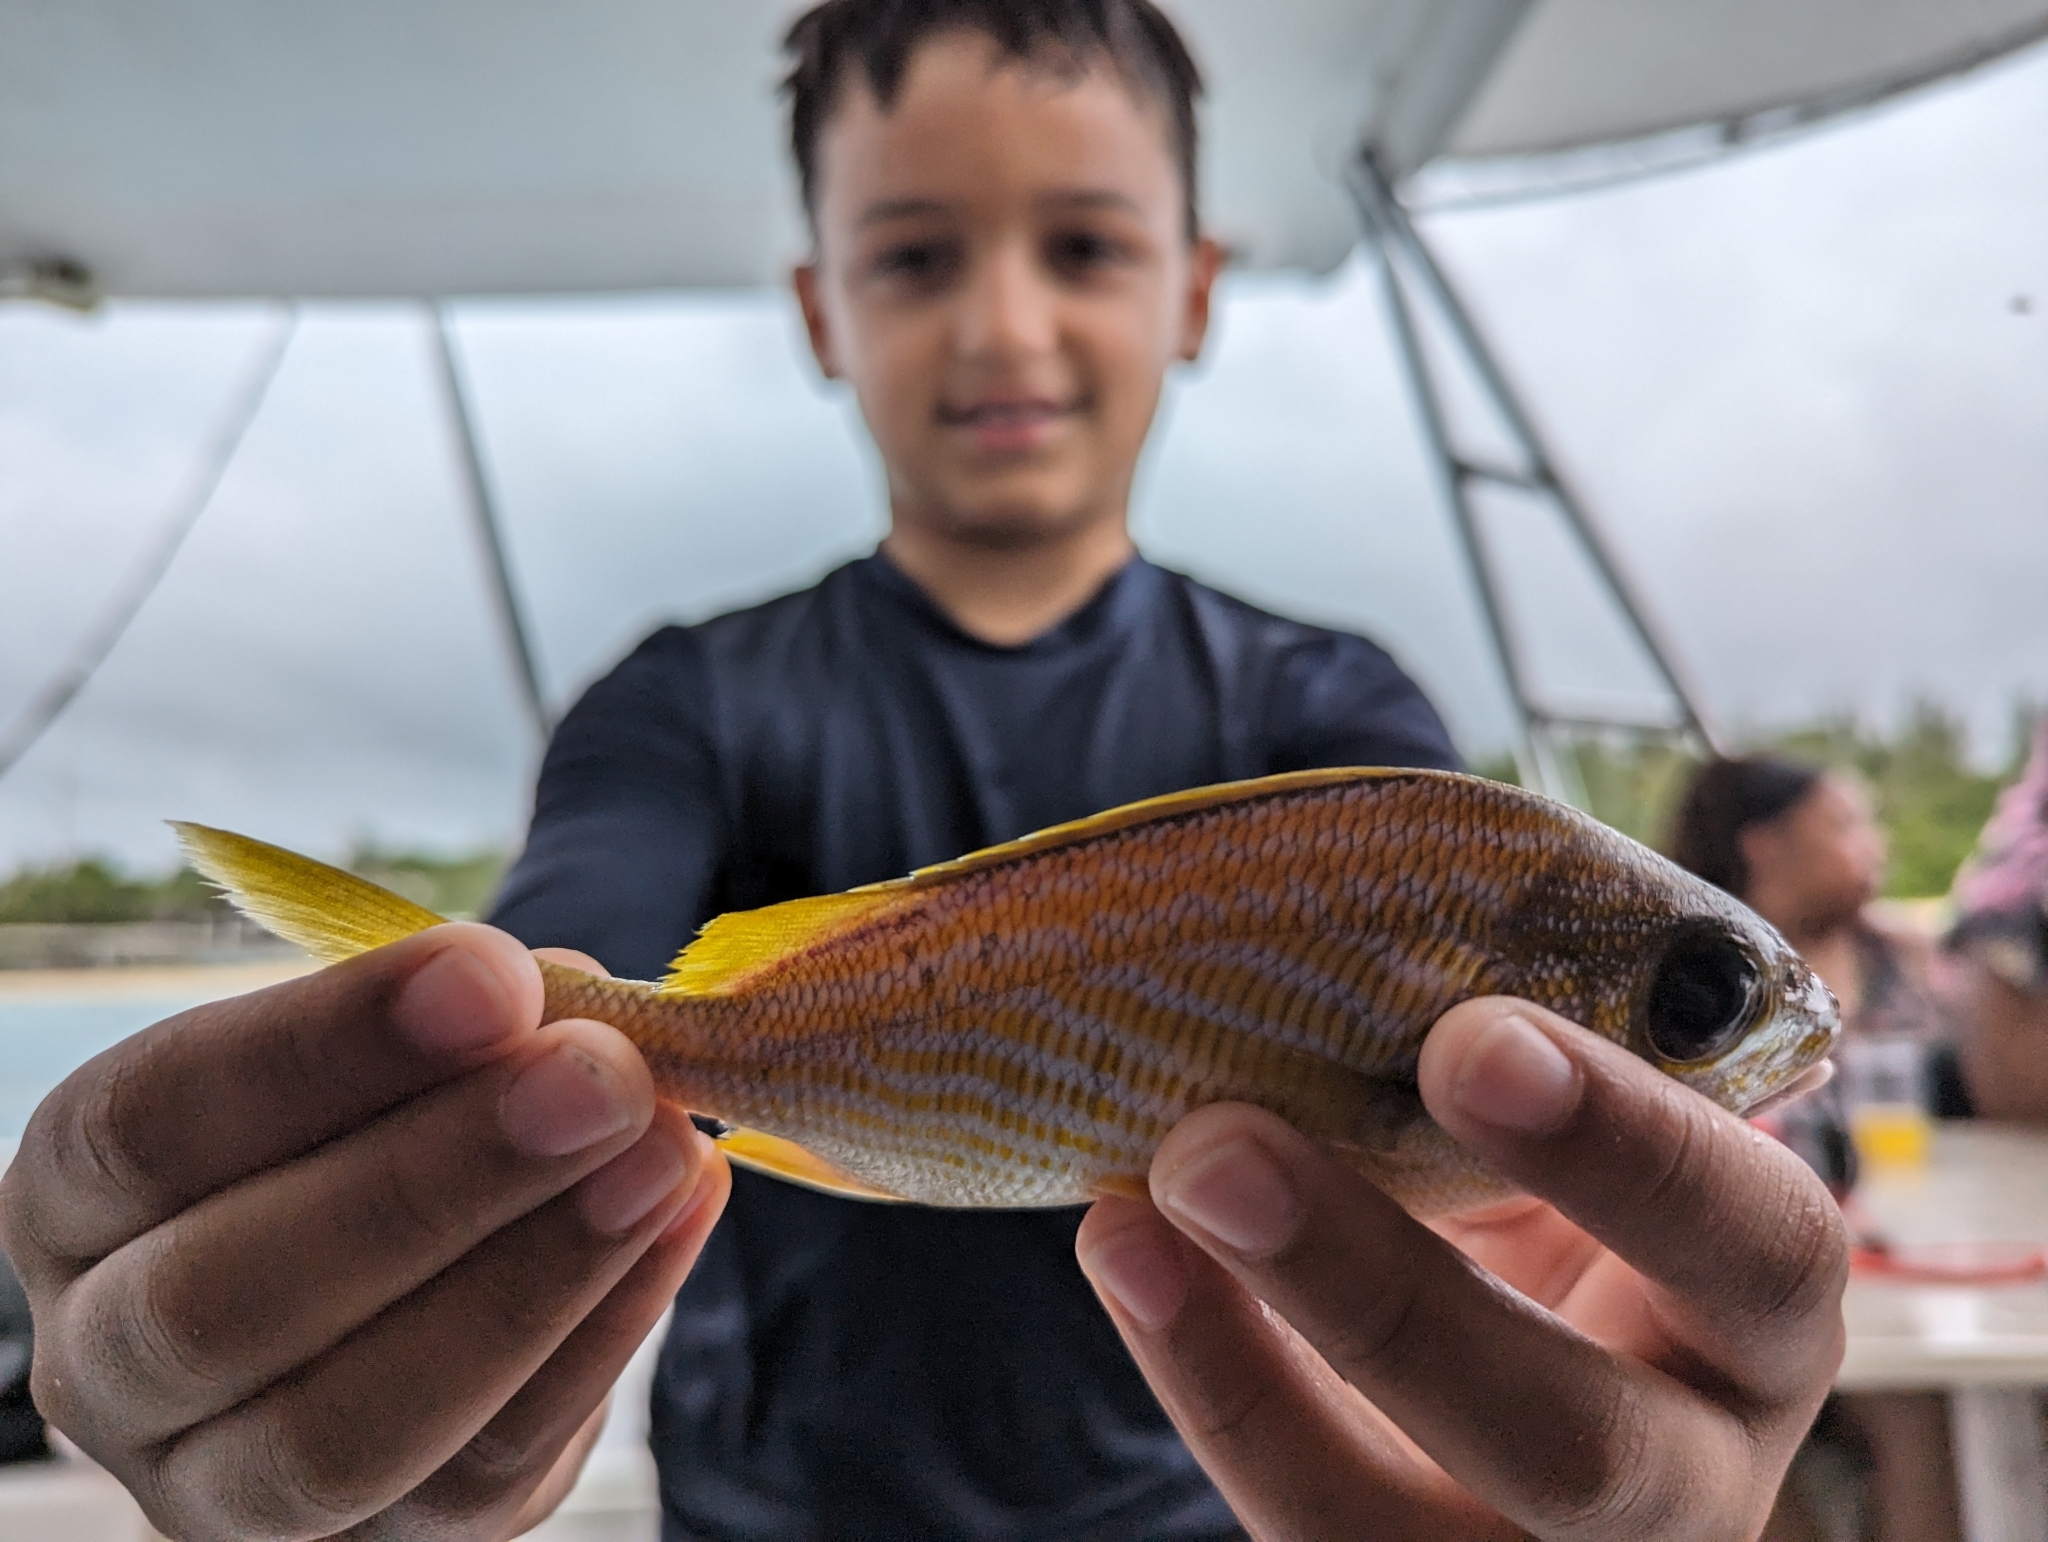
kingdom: Animalia
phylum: Chordata
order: Perciformes
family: Haemulidae
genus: Haemulon
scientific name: Haemulon flavolineatum
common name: French grunt
